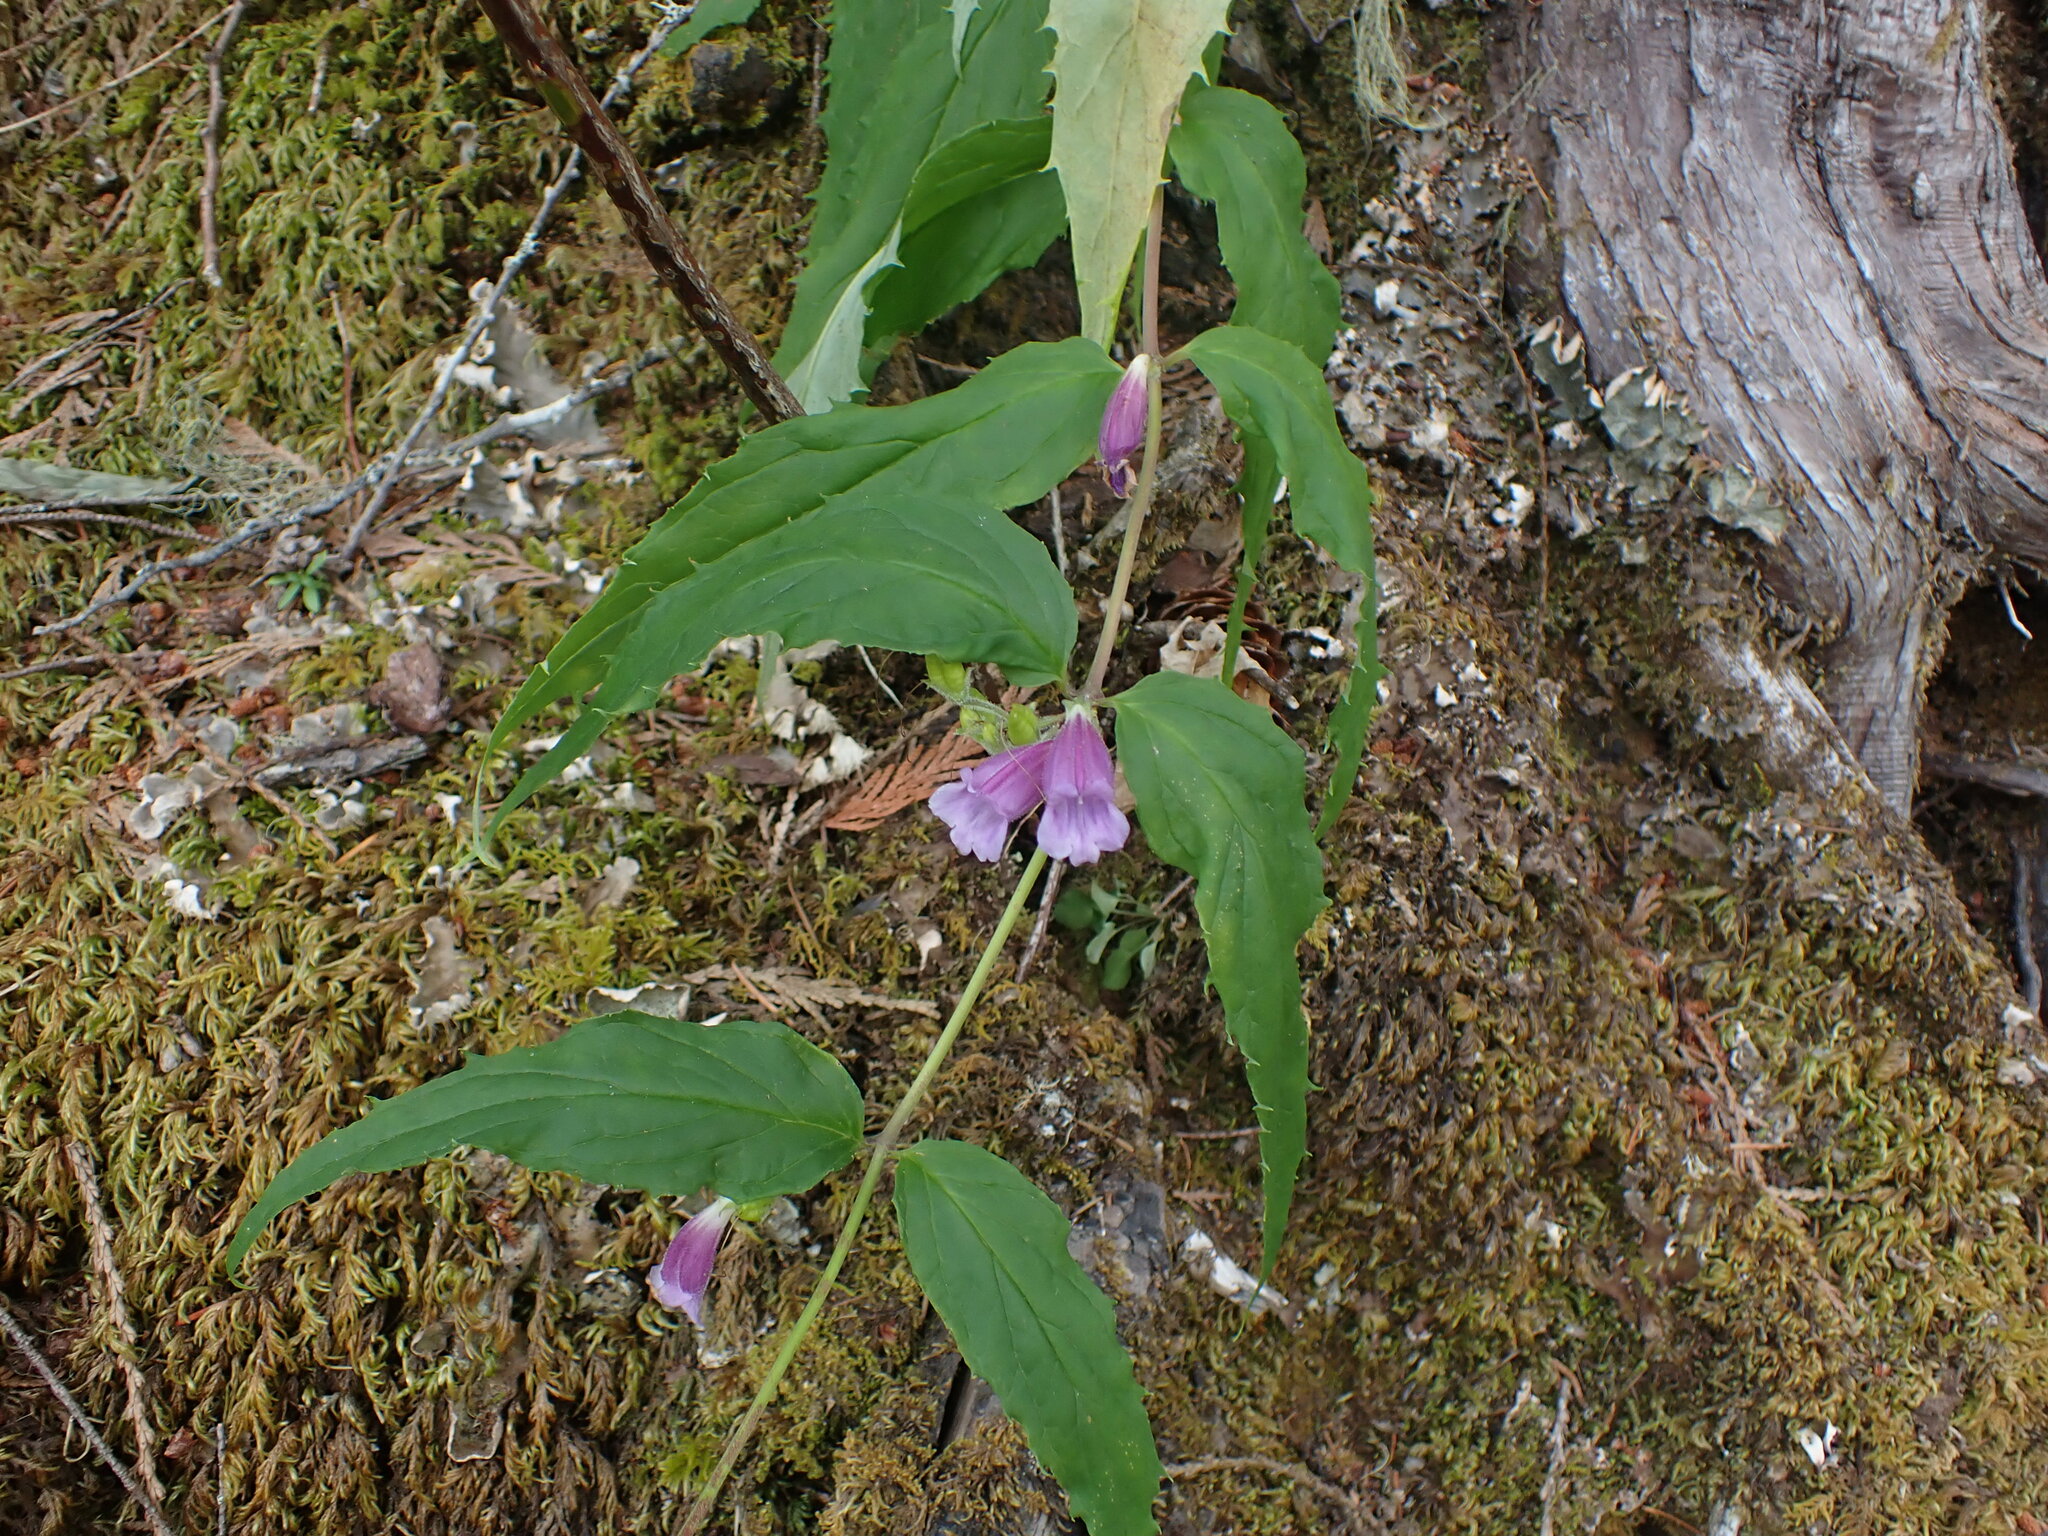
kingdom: Plantae
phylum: Tracheophyta
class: Magnoliopsida
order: Lamiales
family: Plantaginaceae
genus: Nothochelone
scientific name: Nothochelone nemorosa
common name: Woodland beardtongue
